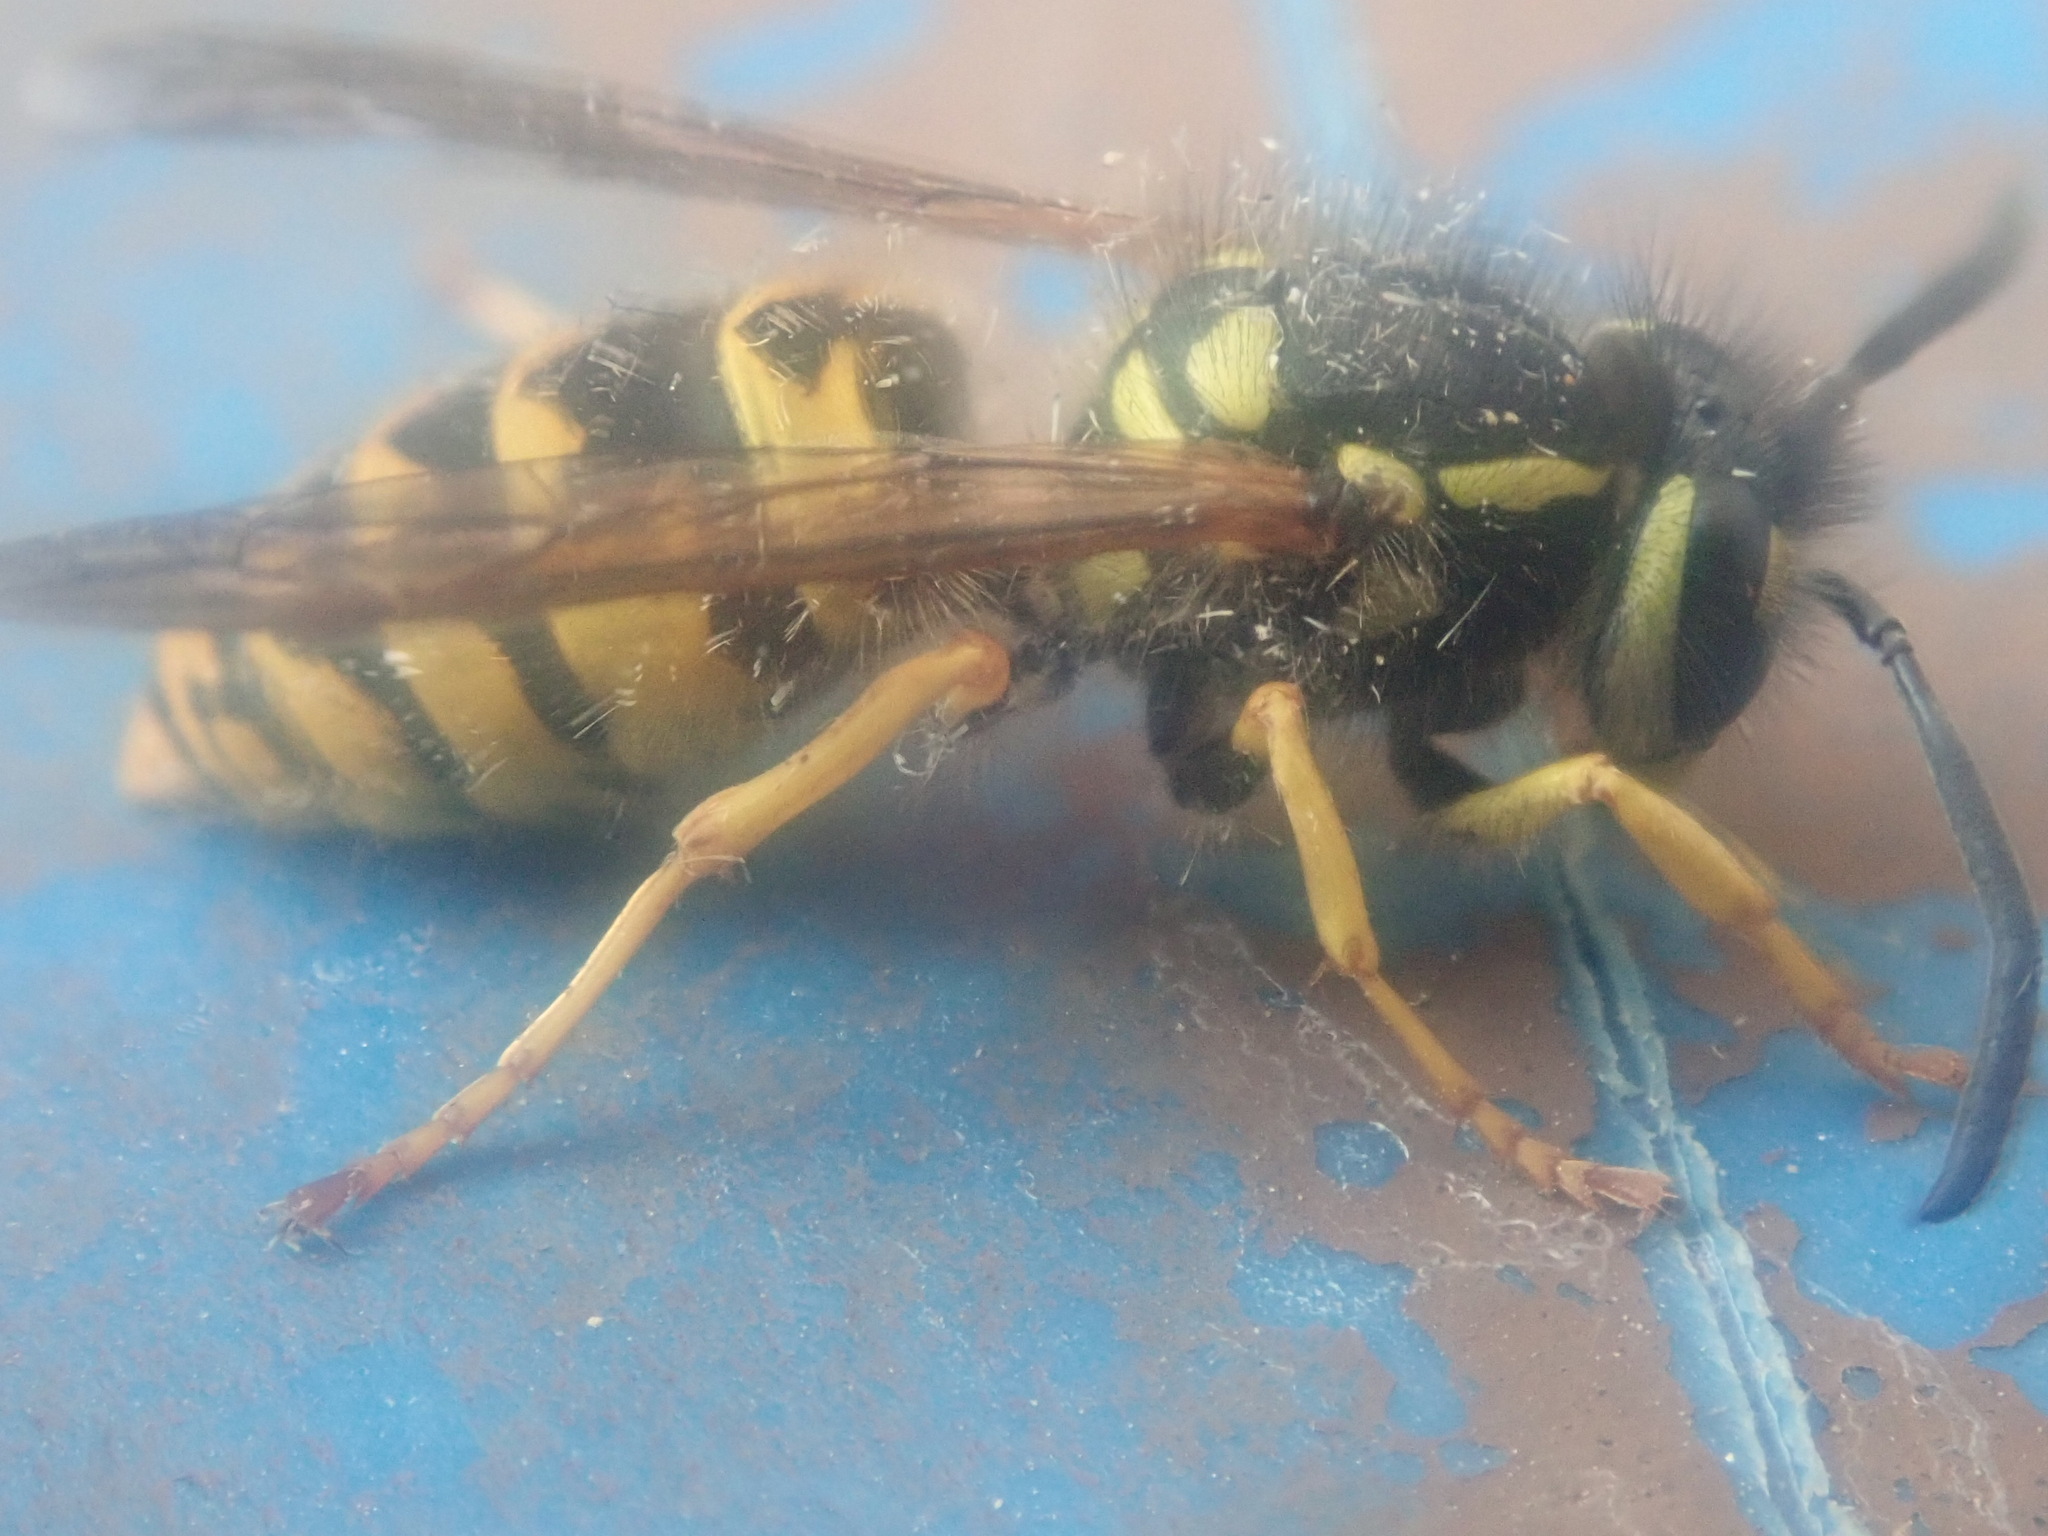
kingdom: Animalia
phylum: Arthropoda
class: Insecta
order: Hymenoptera
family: Vespidae
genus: Vespula
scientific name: Vespula germanica
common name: German wasp
